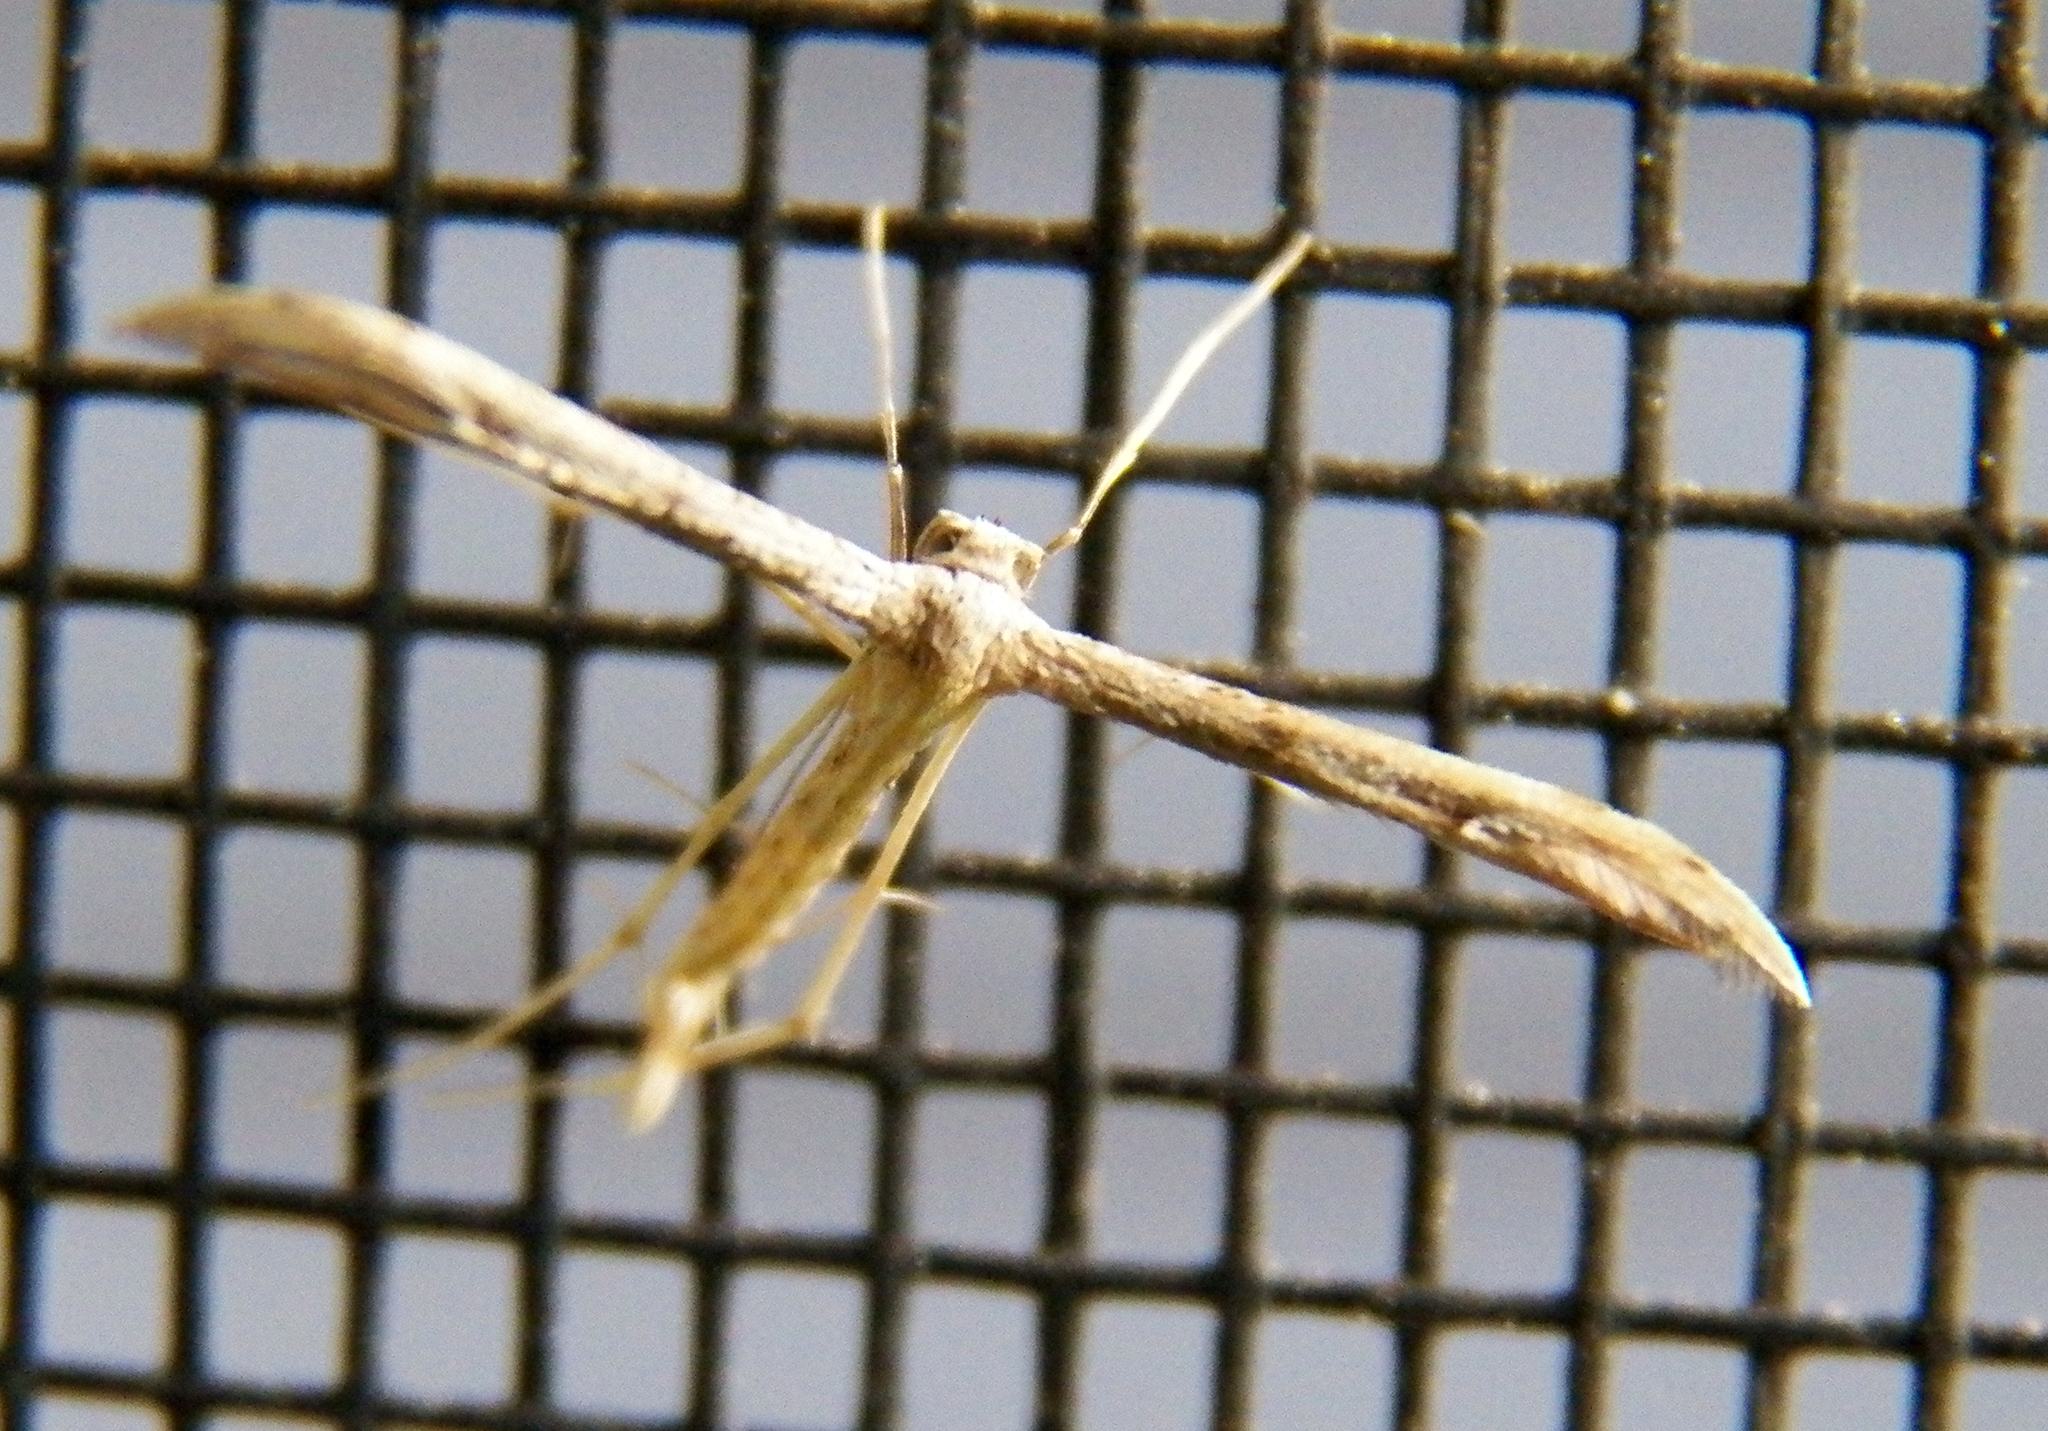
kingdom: Animalia
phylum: Arthropoda
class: Insecta
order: Lepidoptera
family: Pterophoridae
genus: Pselnophorus
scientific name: Pselnophorus belfragei
